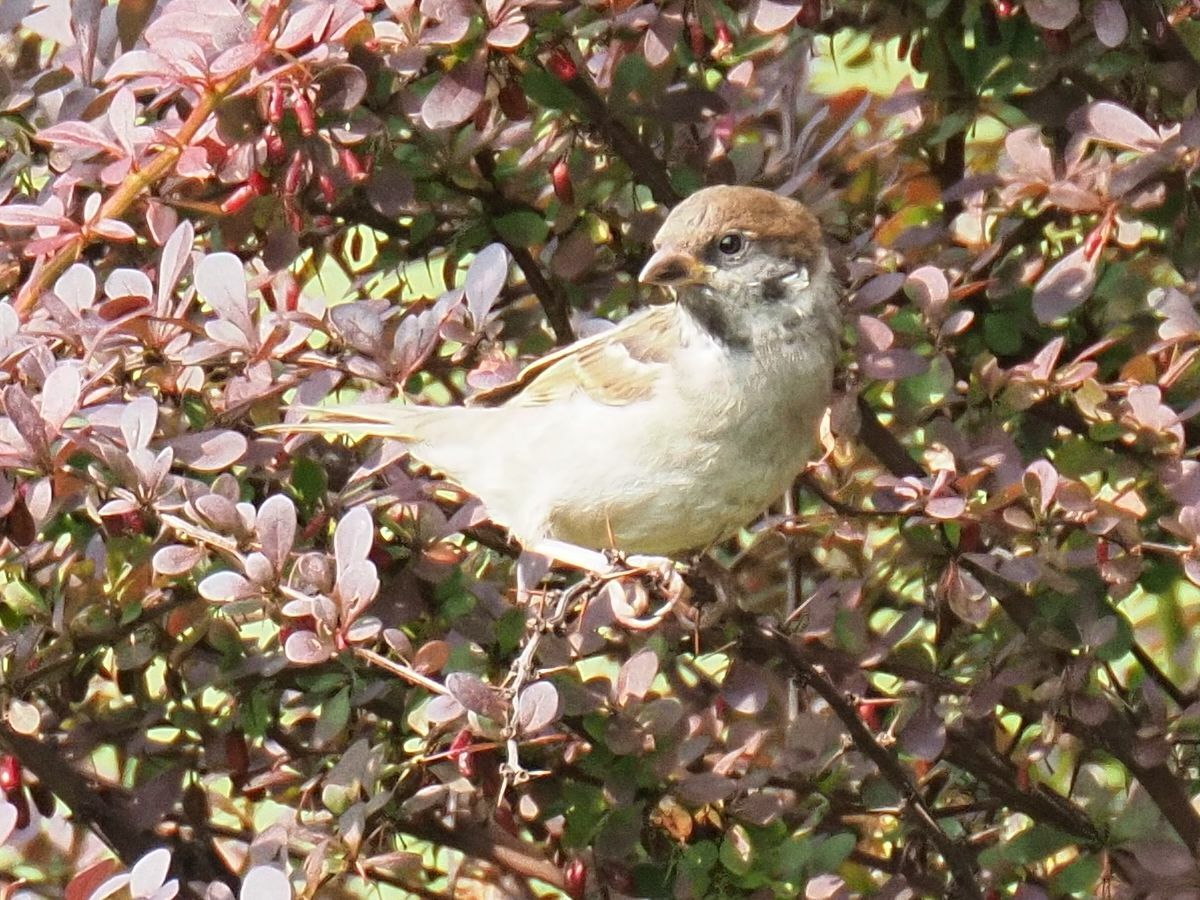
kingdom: Animalia
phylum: Chordata
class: Aves
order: Passeriformes
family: Passeridae
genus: Passer
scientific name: Passer montanus
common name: Eurasian tree sparrow
